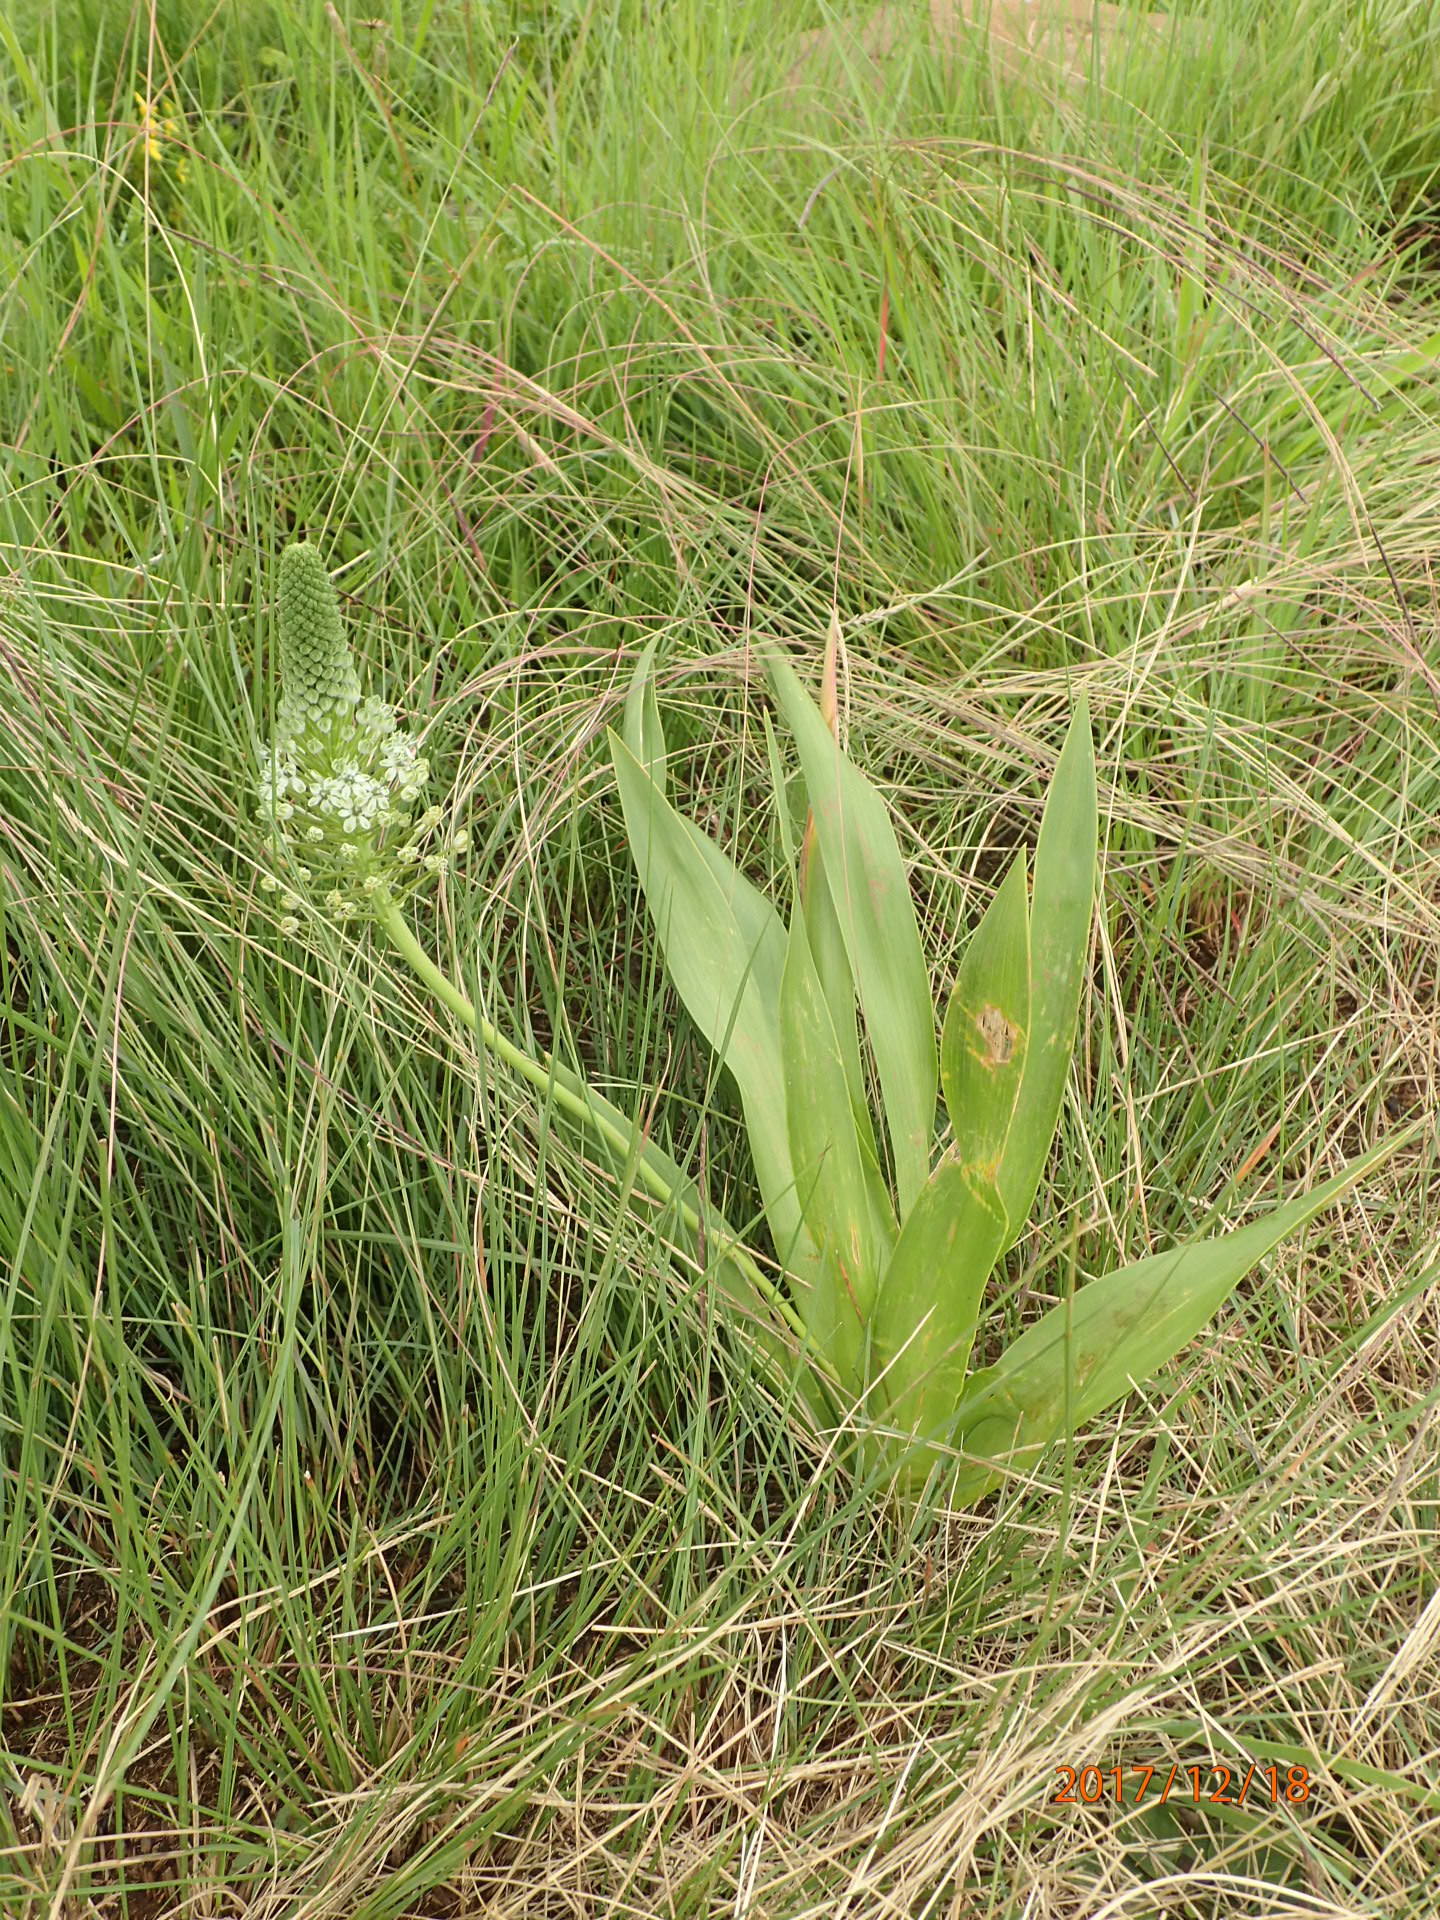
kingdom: Plantae
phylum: Tracheophyta
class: Liliopsida
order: Asparagales
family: Asparagaceae
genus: Schizocarphus
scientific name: Schizocarphus nervosus
